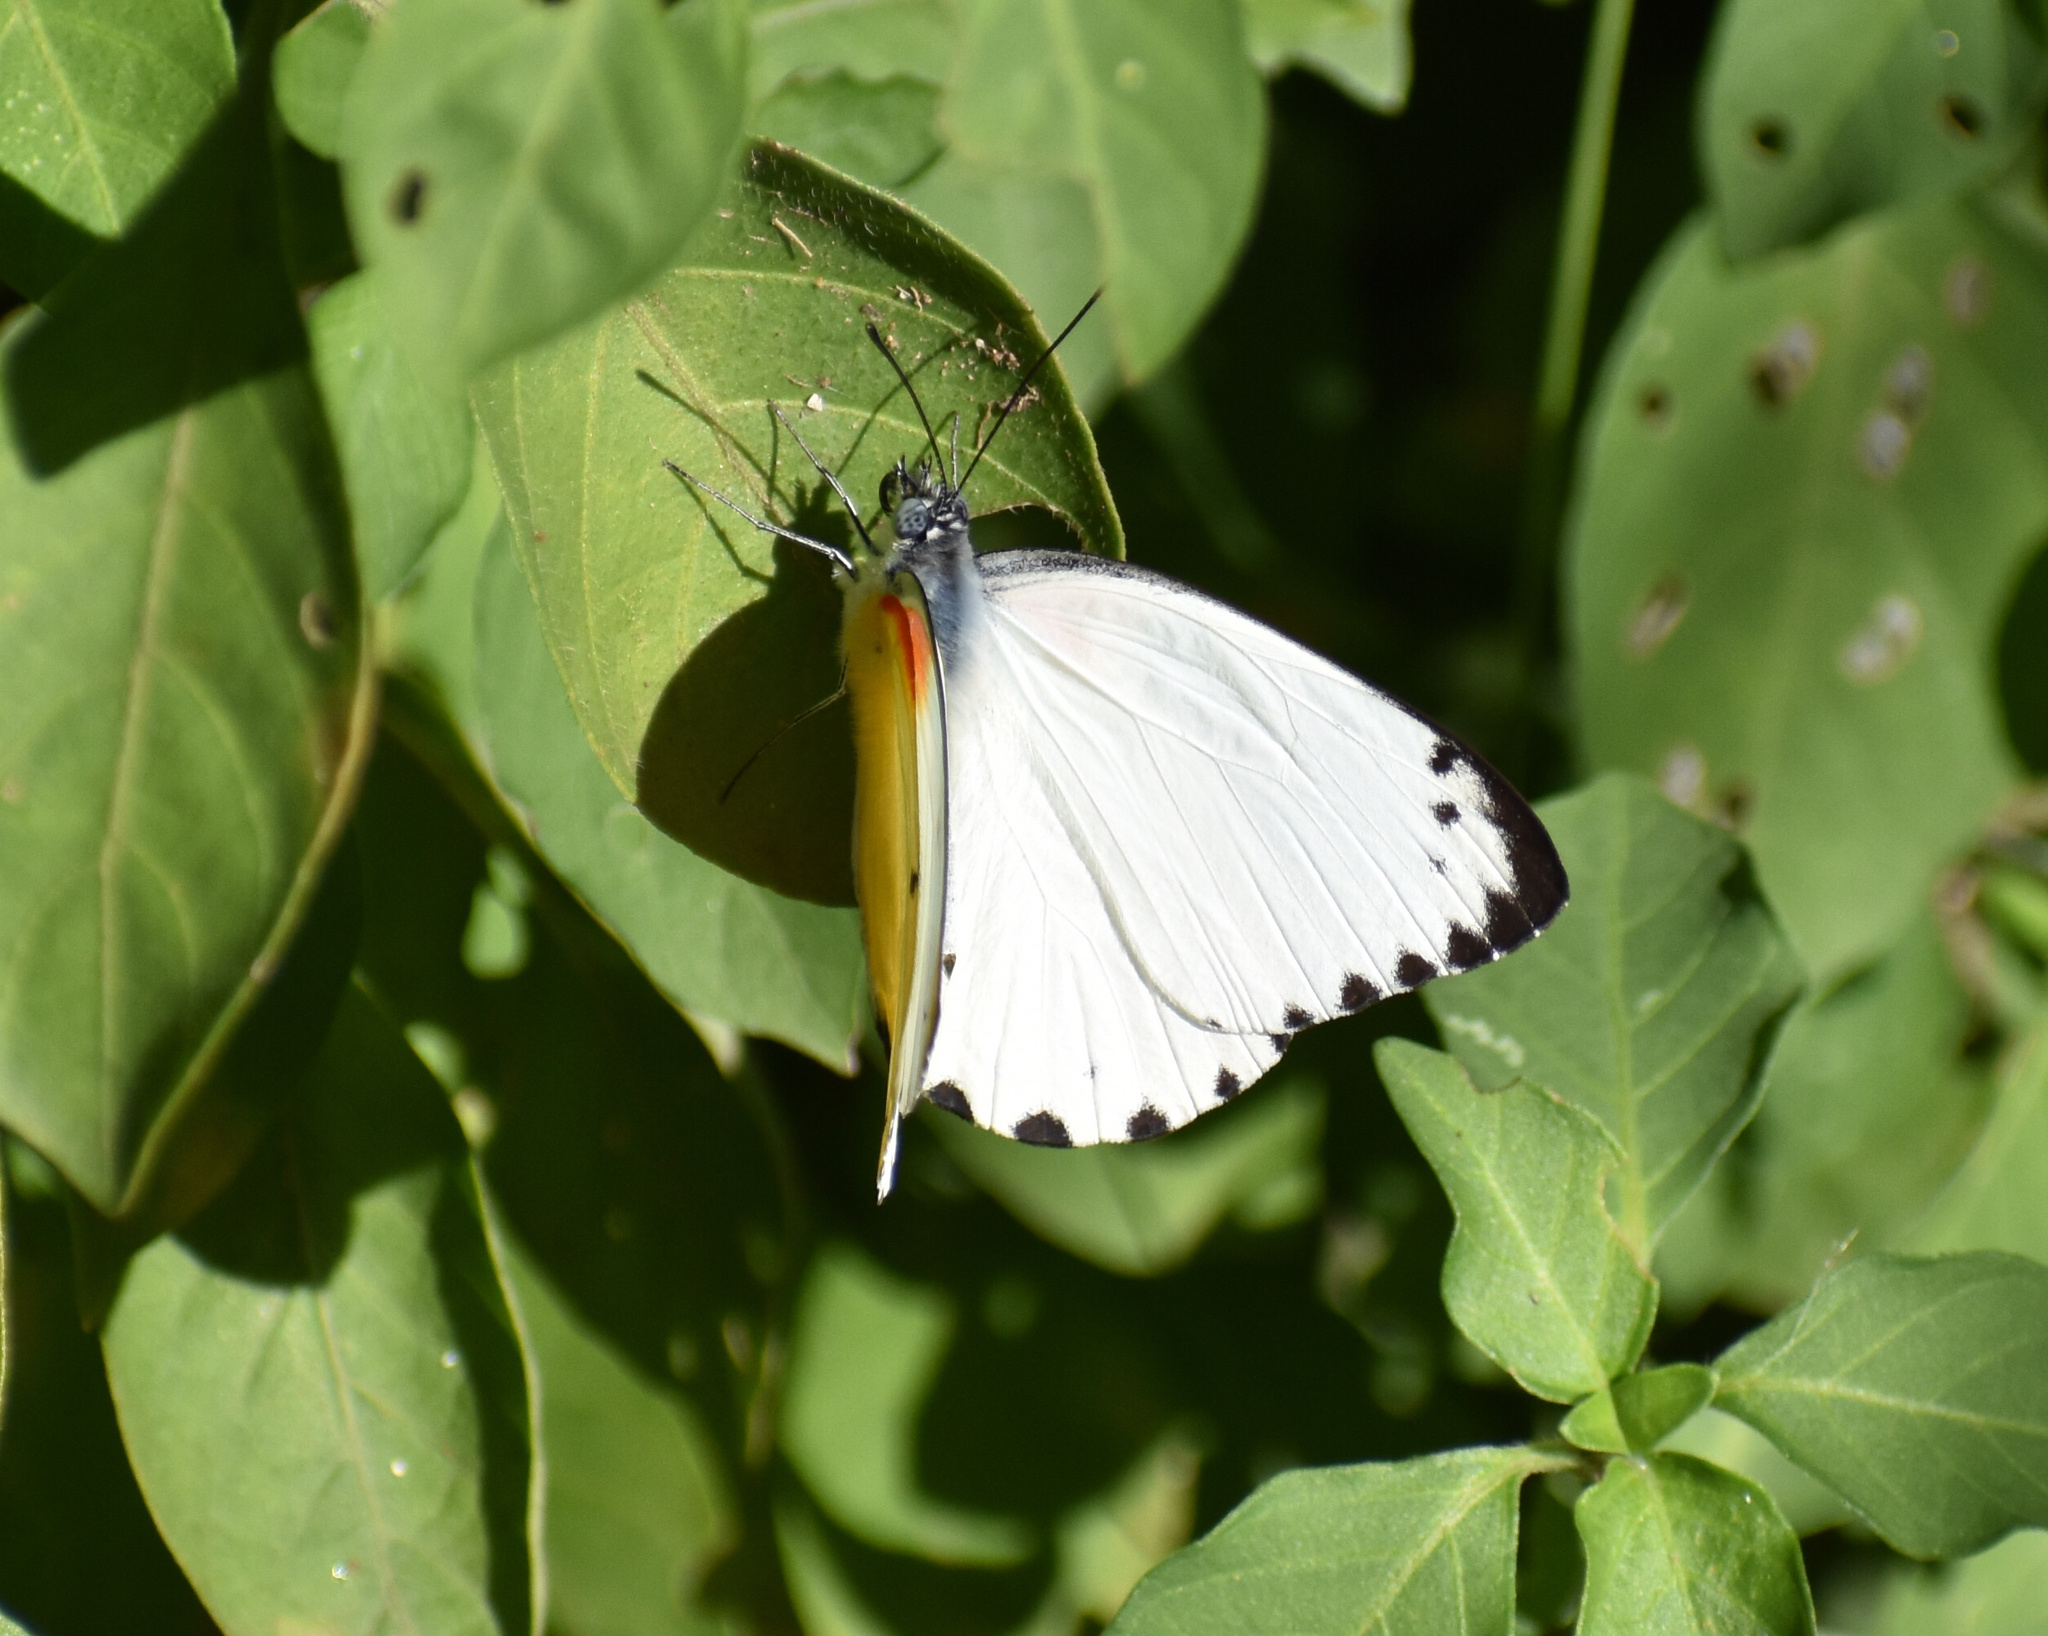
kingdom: Animalia
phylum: Arthropoda
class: Insecta
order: Lepidoptera
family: Pieridae
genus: Belenois
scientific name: Belenois thysa
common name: False dotted border
